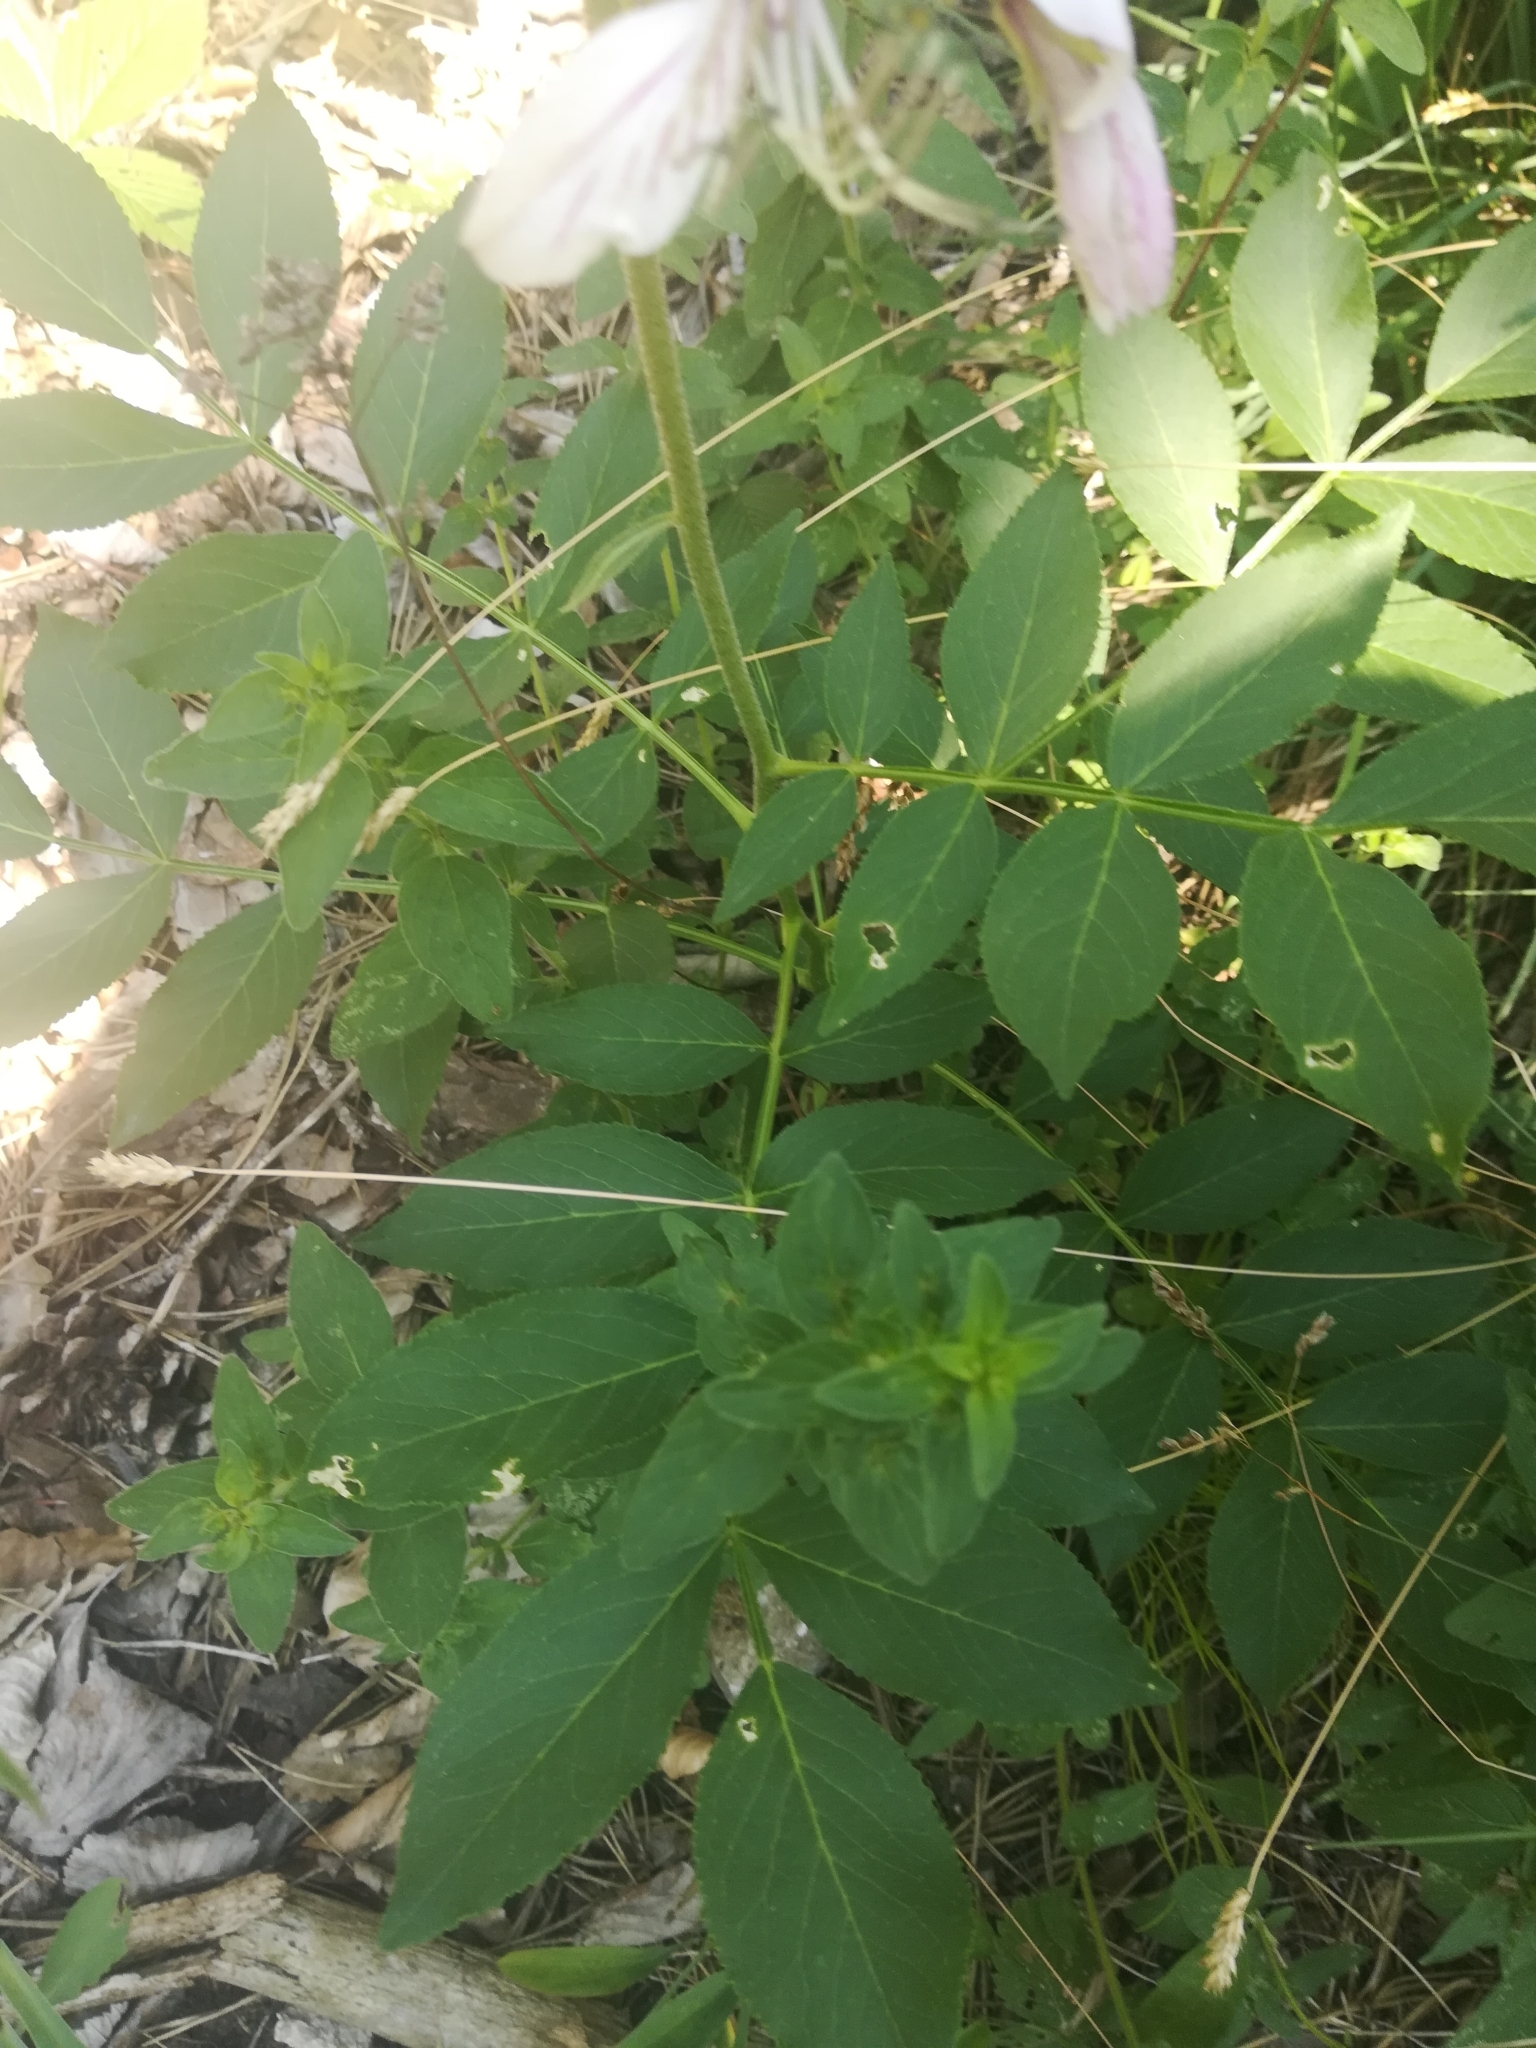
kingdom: Plantae
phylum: Tracheophyta
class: Magnoliopsida
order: Sapindales
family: Rutaceae
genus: Dictamnus
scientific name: Dictamnus albus
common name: Gasplant
